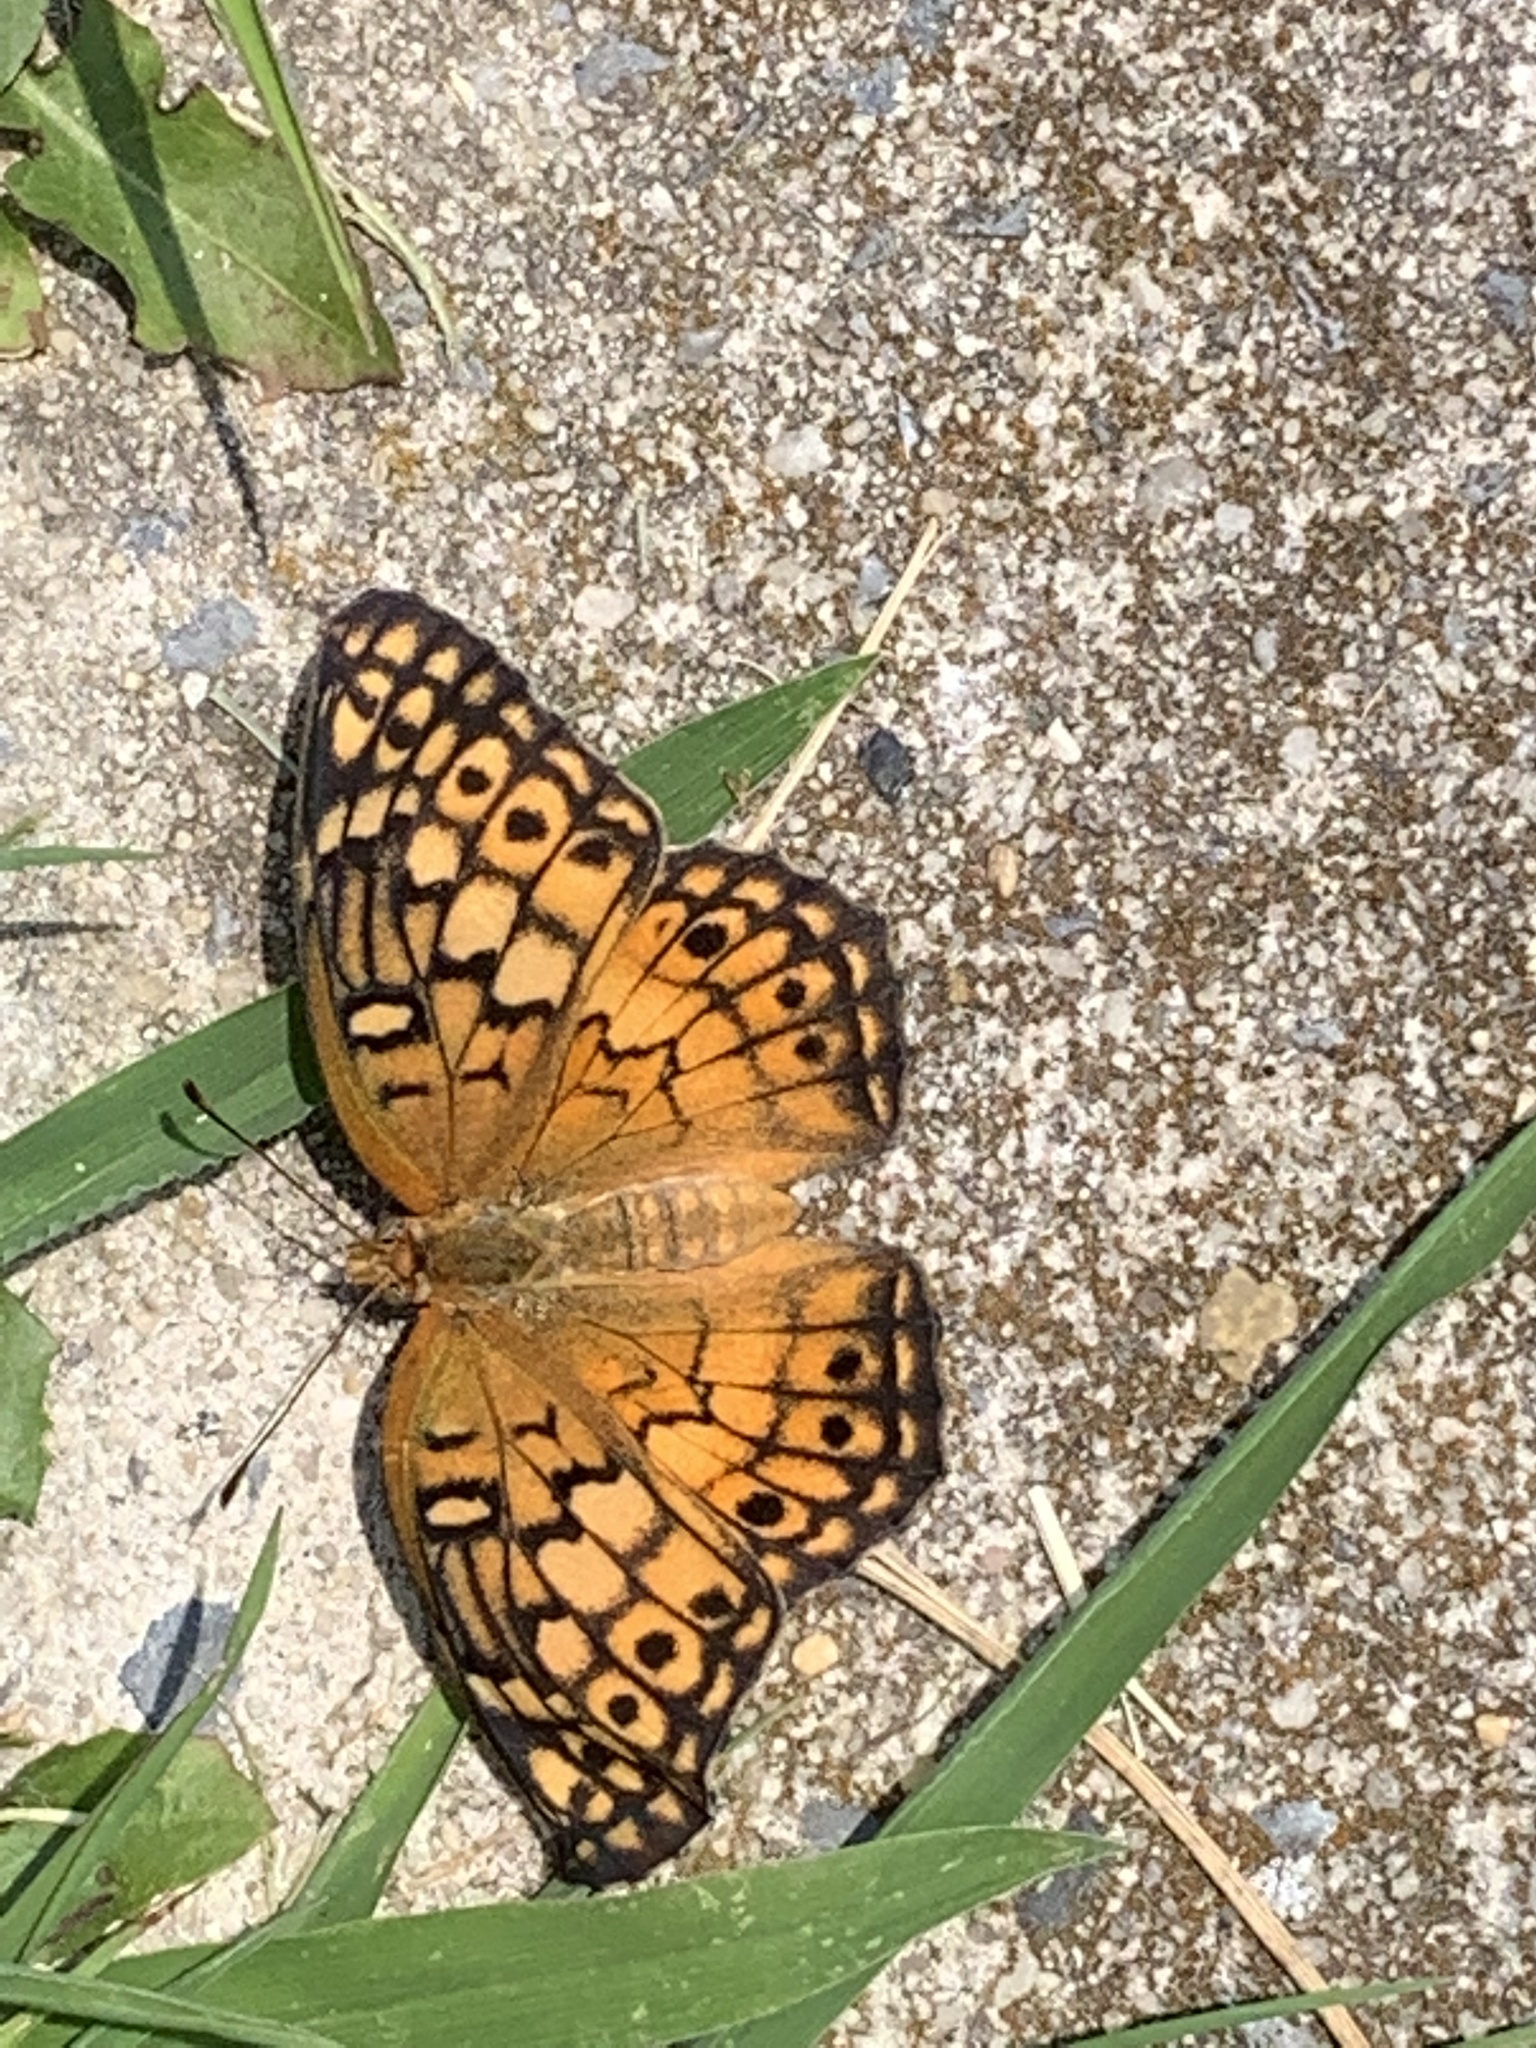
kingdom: Animalia
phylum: Arthropoda
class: Insecta
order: Lepidoptera
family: Nymphalidae
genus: Euptoieta
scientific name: Euptoieta claudia
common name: Variegated fritillary
